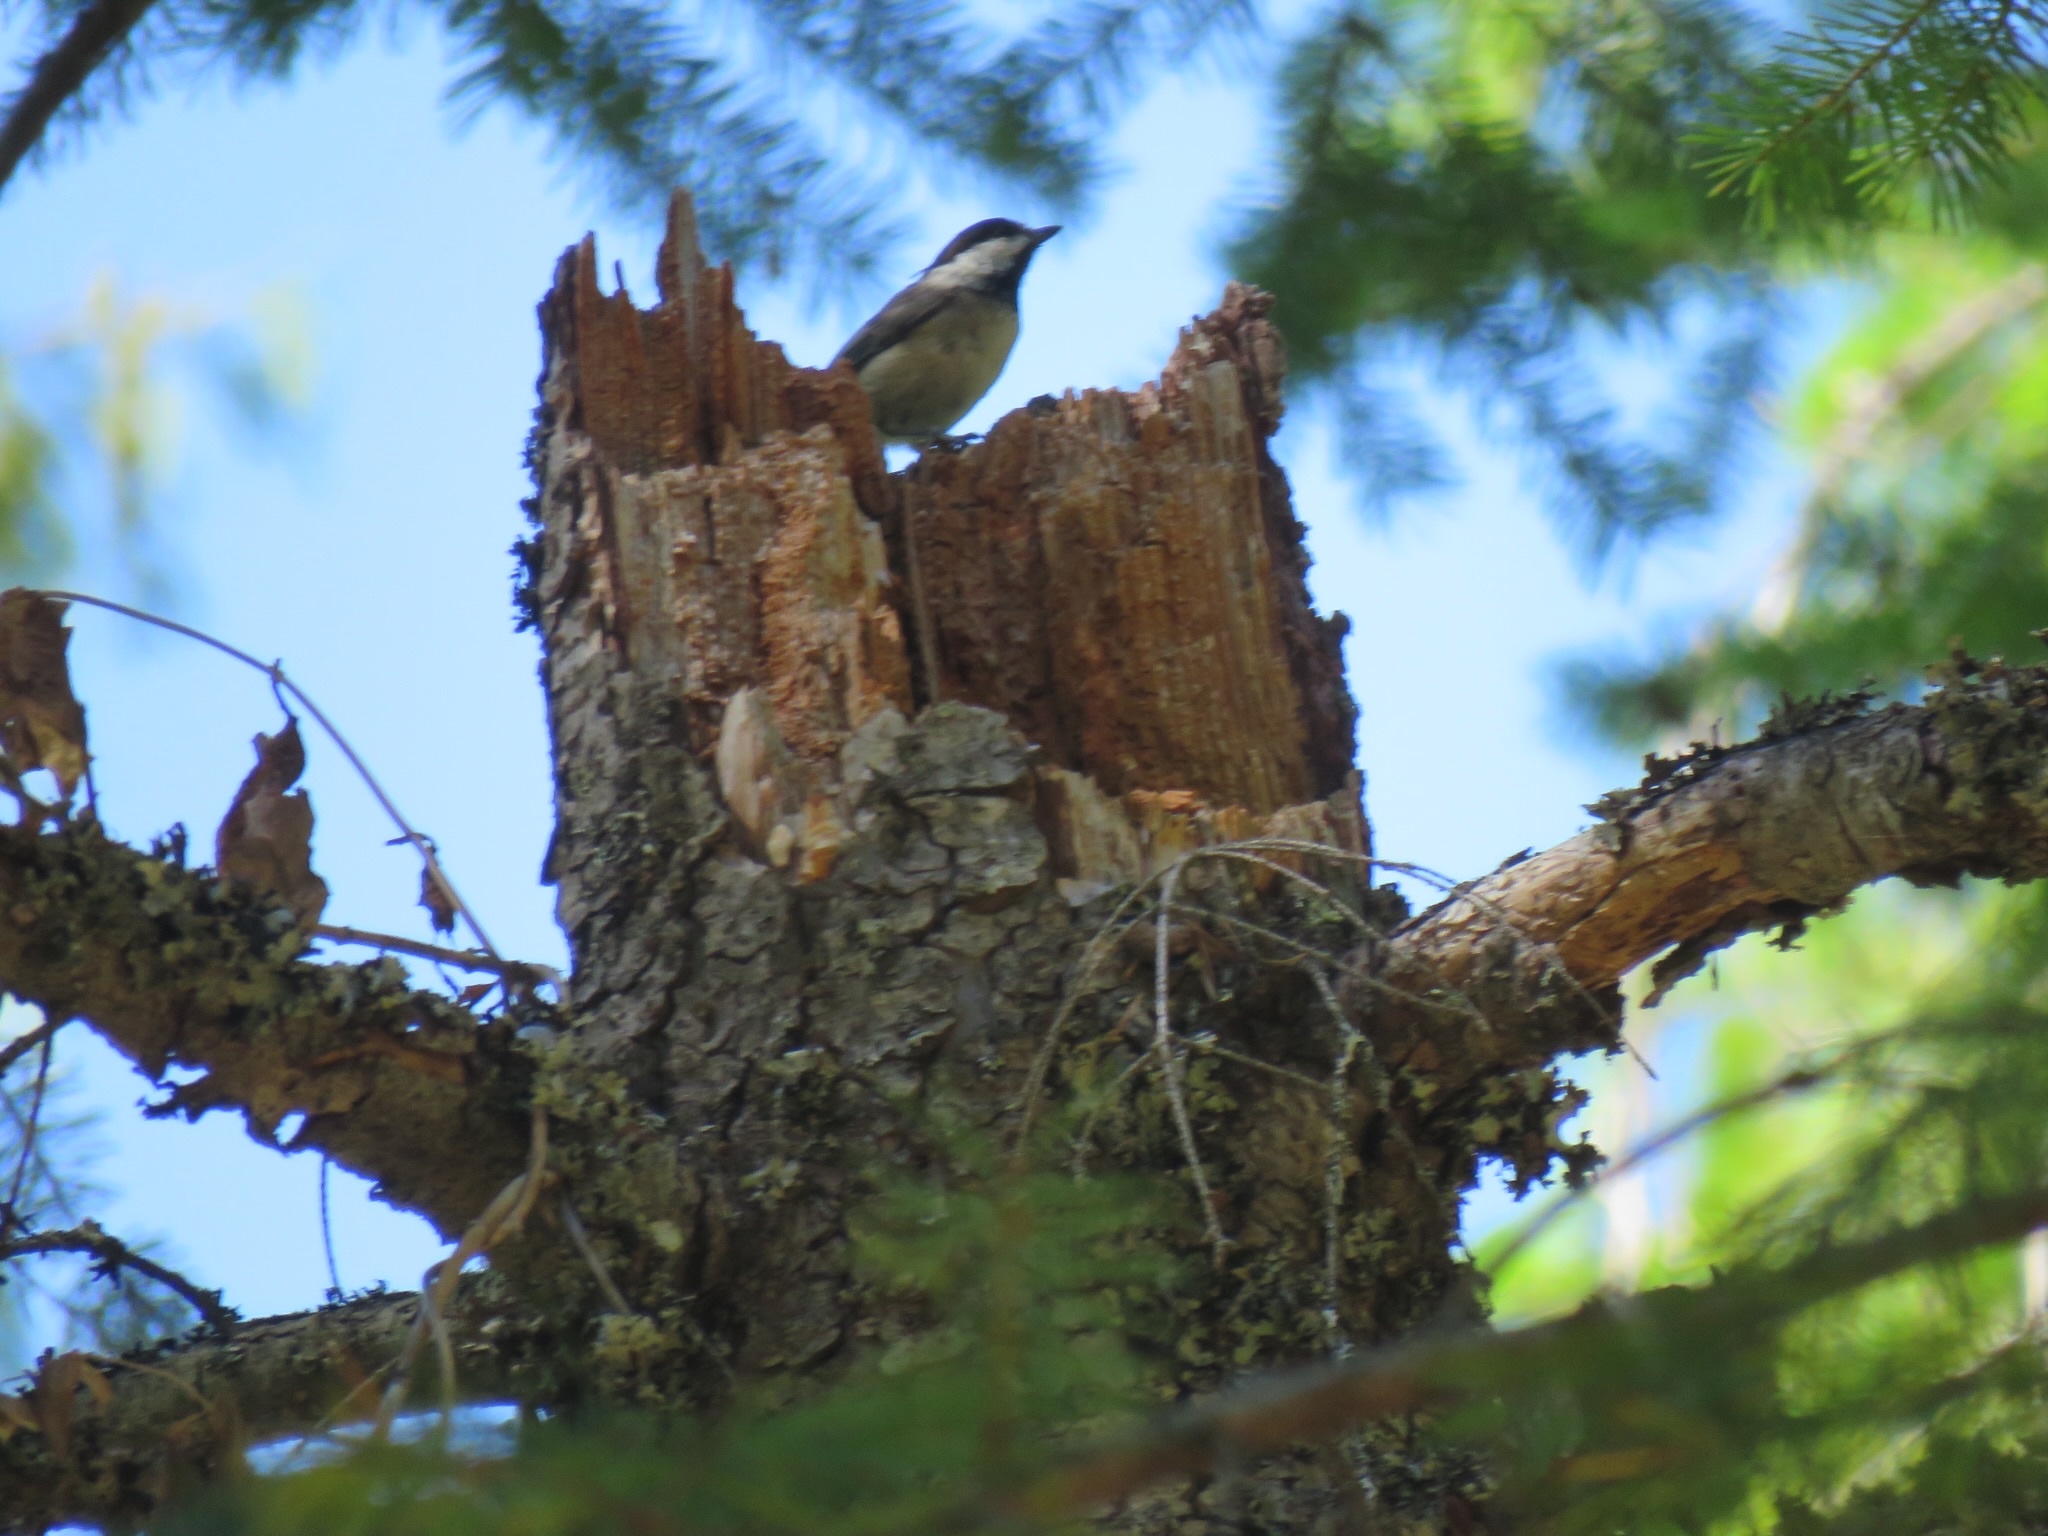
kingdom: Animalia
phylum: Chordata
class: Aves
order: Passeriformes
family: Paridae
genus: Poecile
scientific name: Poecile atricapillus
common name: Black-capped chickadee
